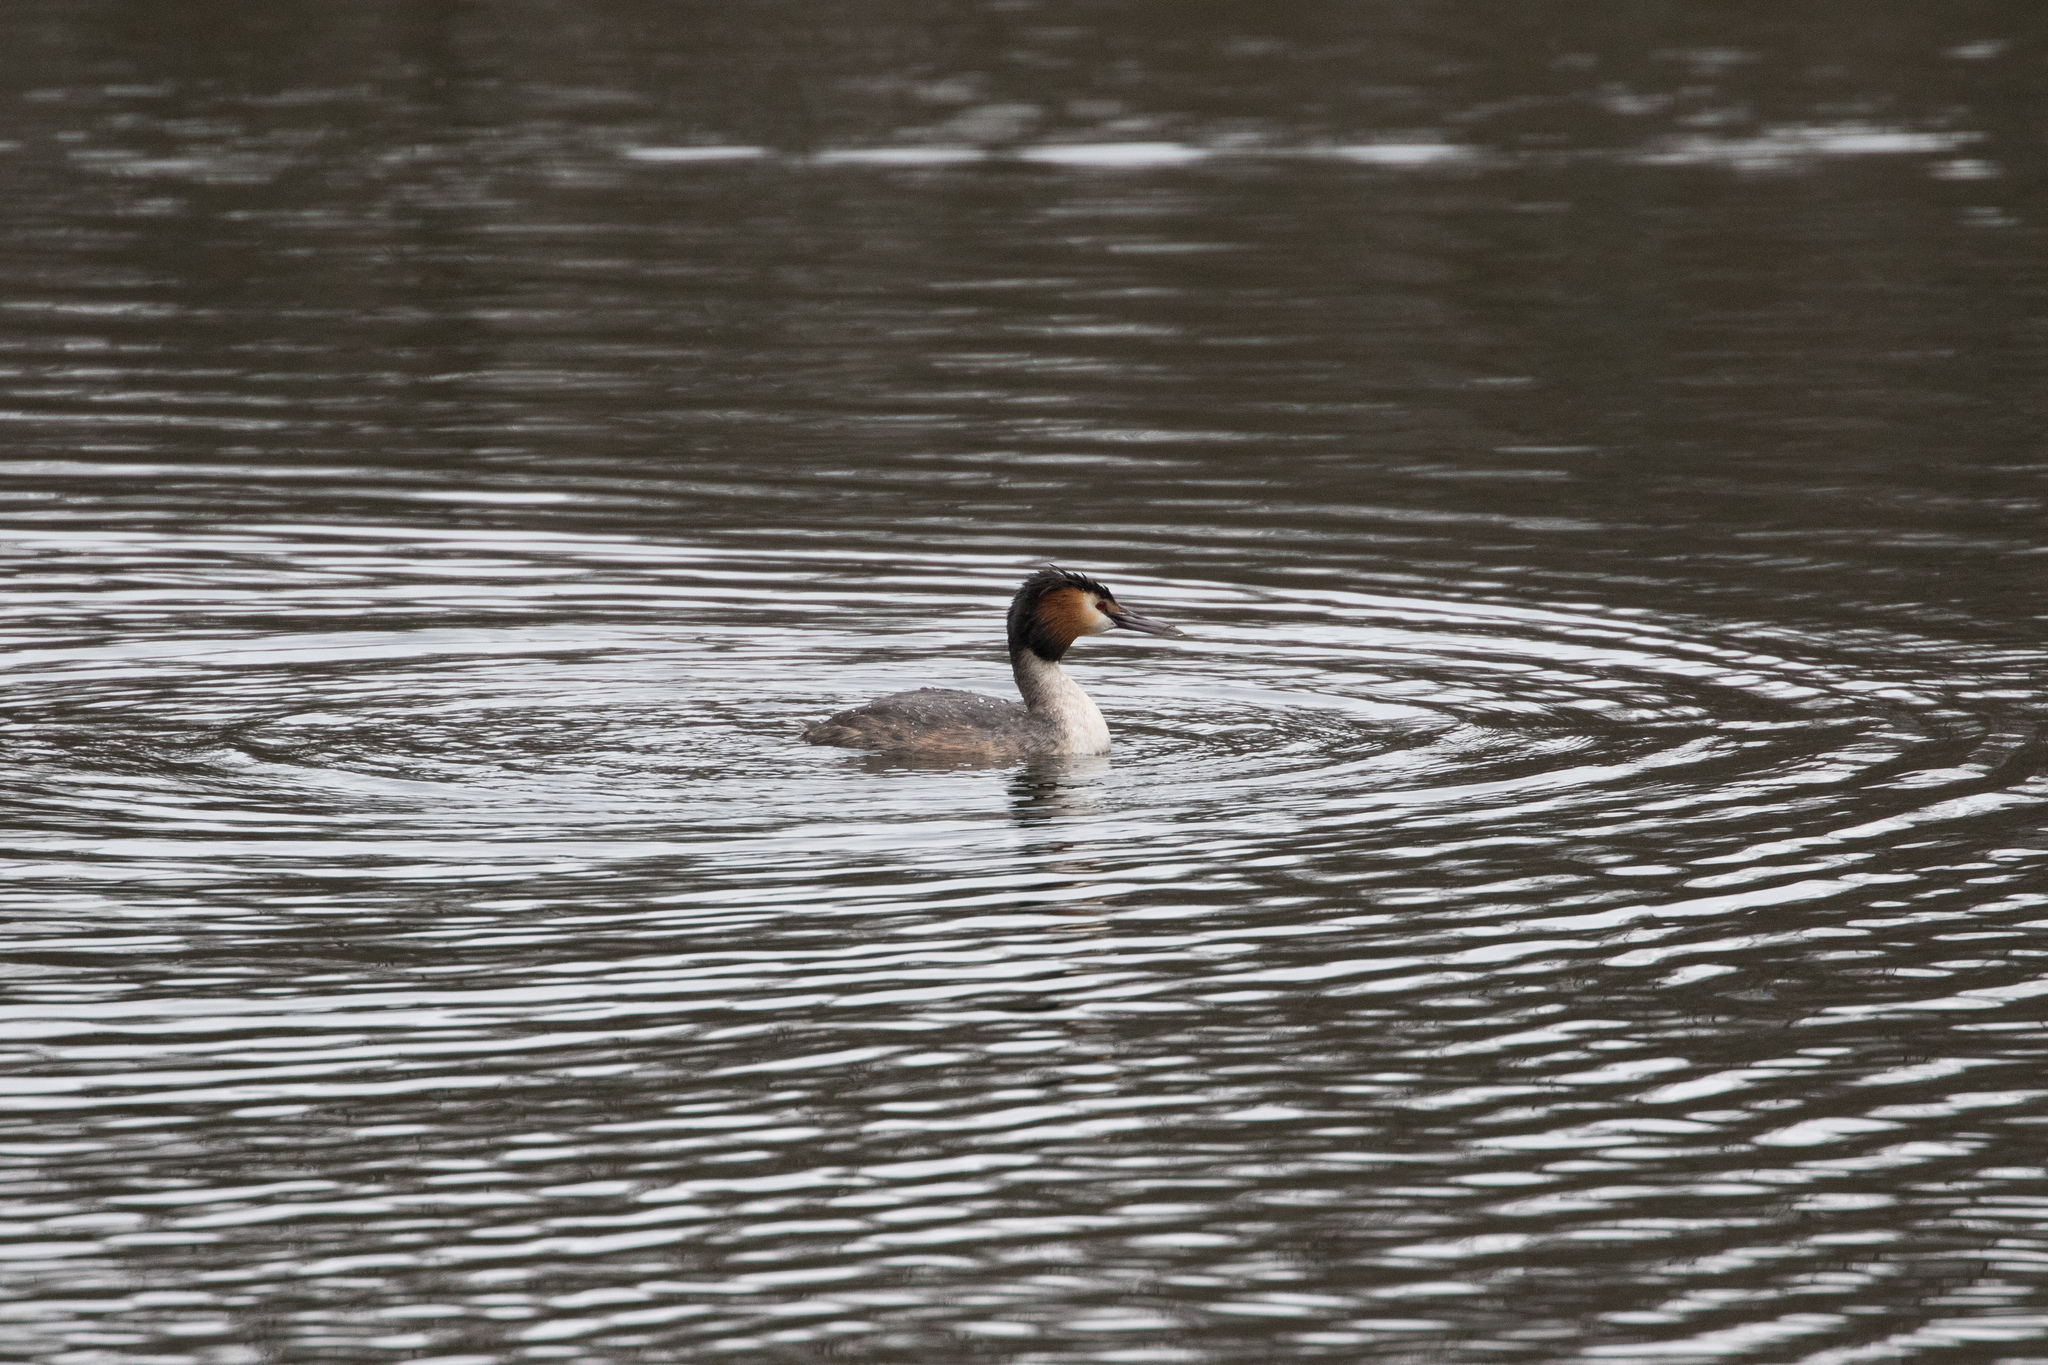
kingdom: Animalia
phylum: Chordata
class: Aves
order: Podicipediformes
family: Podicipedidae
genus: Podiceps
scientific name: Podiceps cristatus
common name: Great crested grebe
